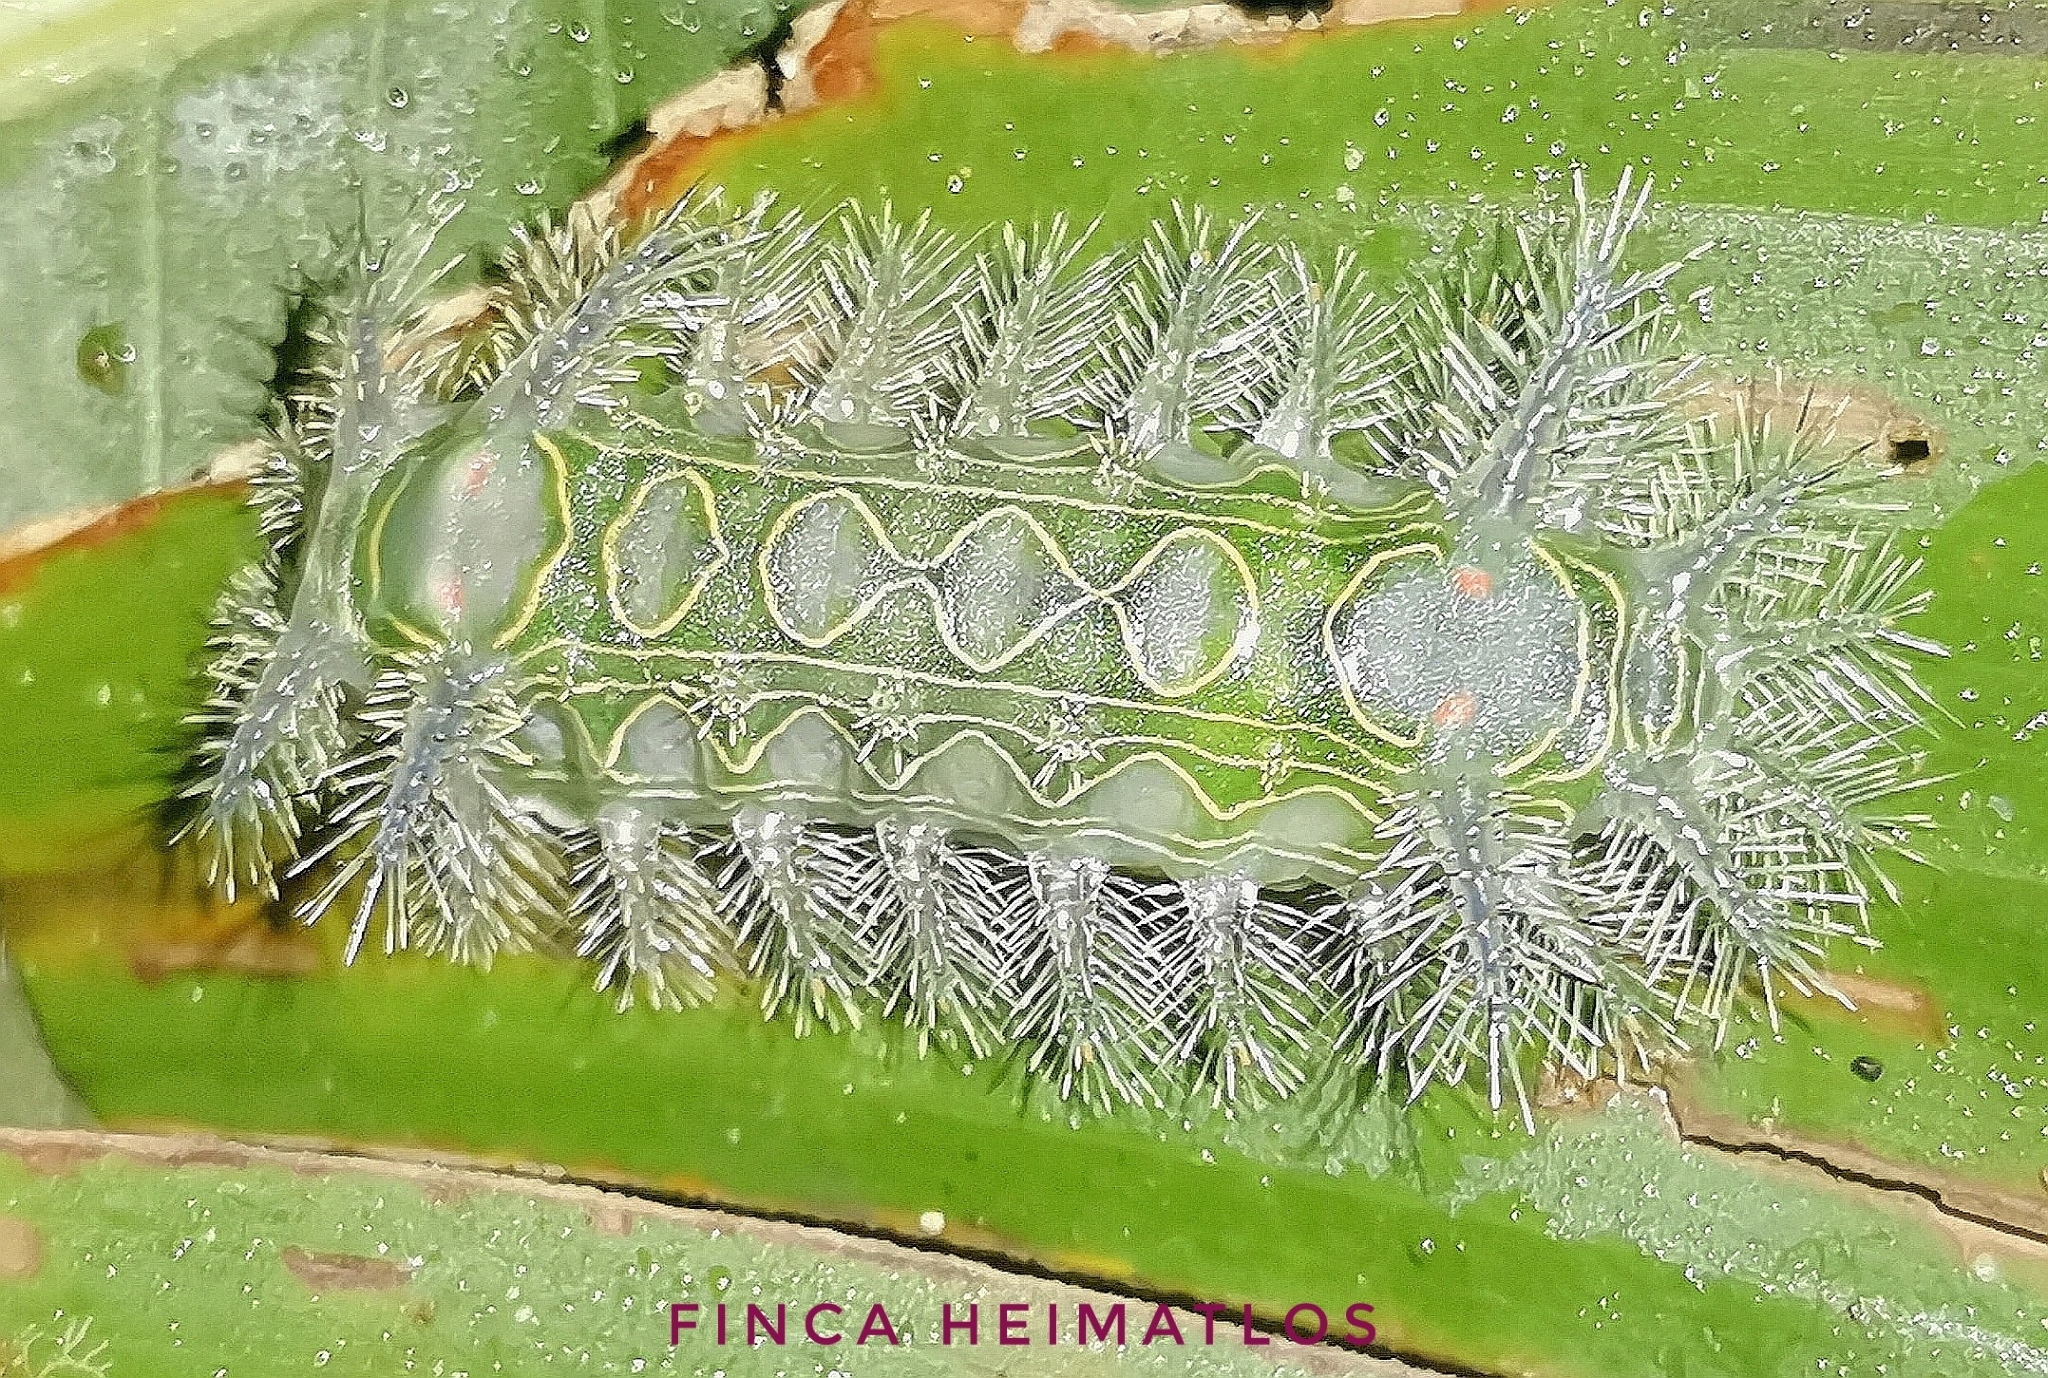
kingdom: Animalia
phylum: Arthropoda
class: Insecta
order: Lepidoptera
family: Limacodidae
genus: Miresa
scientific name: Miresa clarissa
